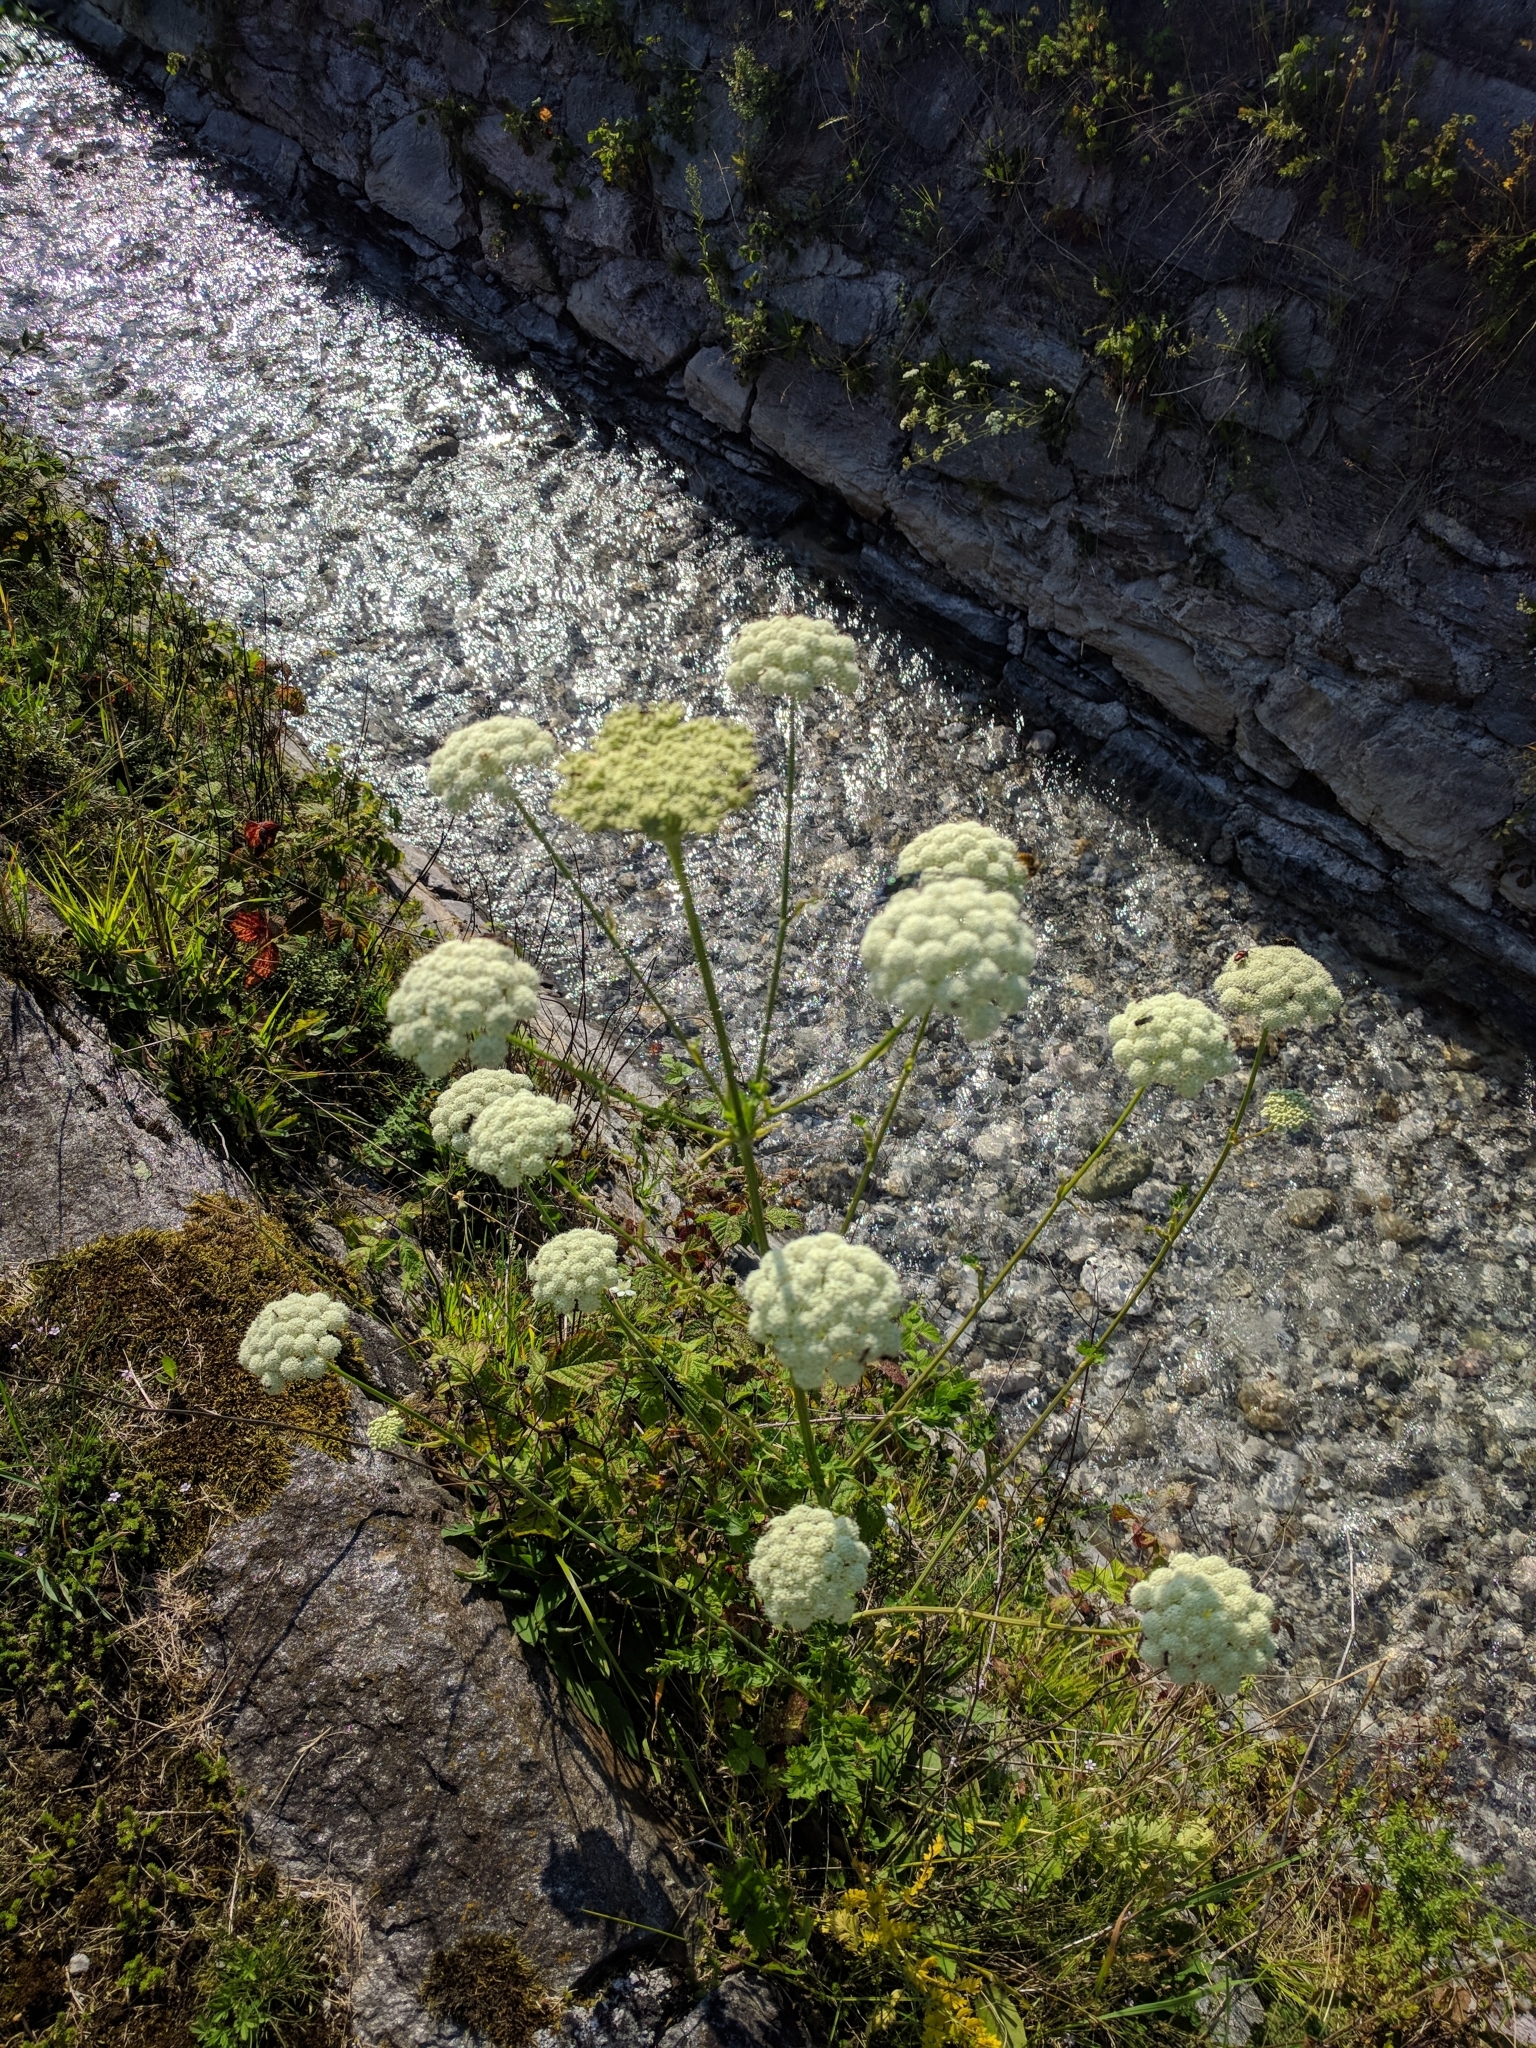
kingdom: Plantae
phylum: Tracheophyta
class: Magnoliopsida
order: Apiales
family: Apiaceae
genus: Seseli
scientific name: Seseli libanotis
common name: Mooncarrot
